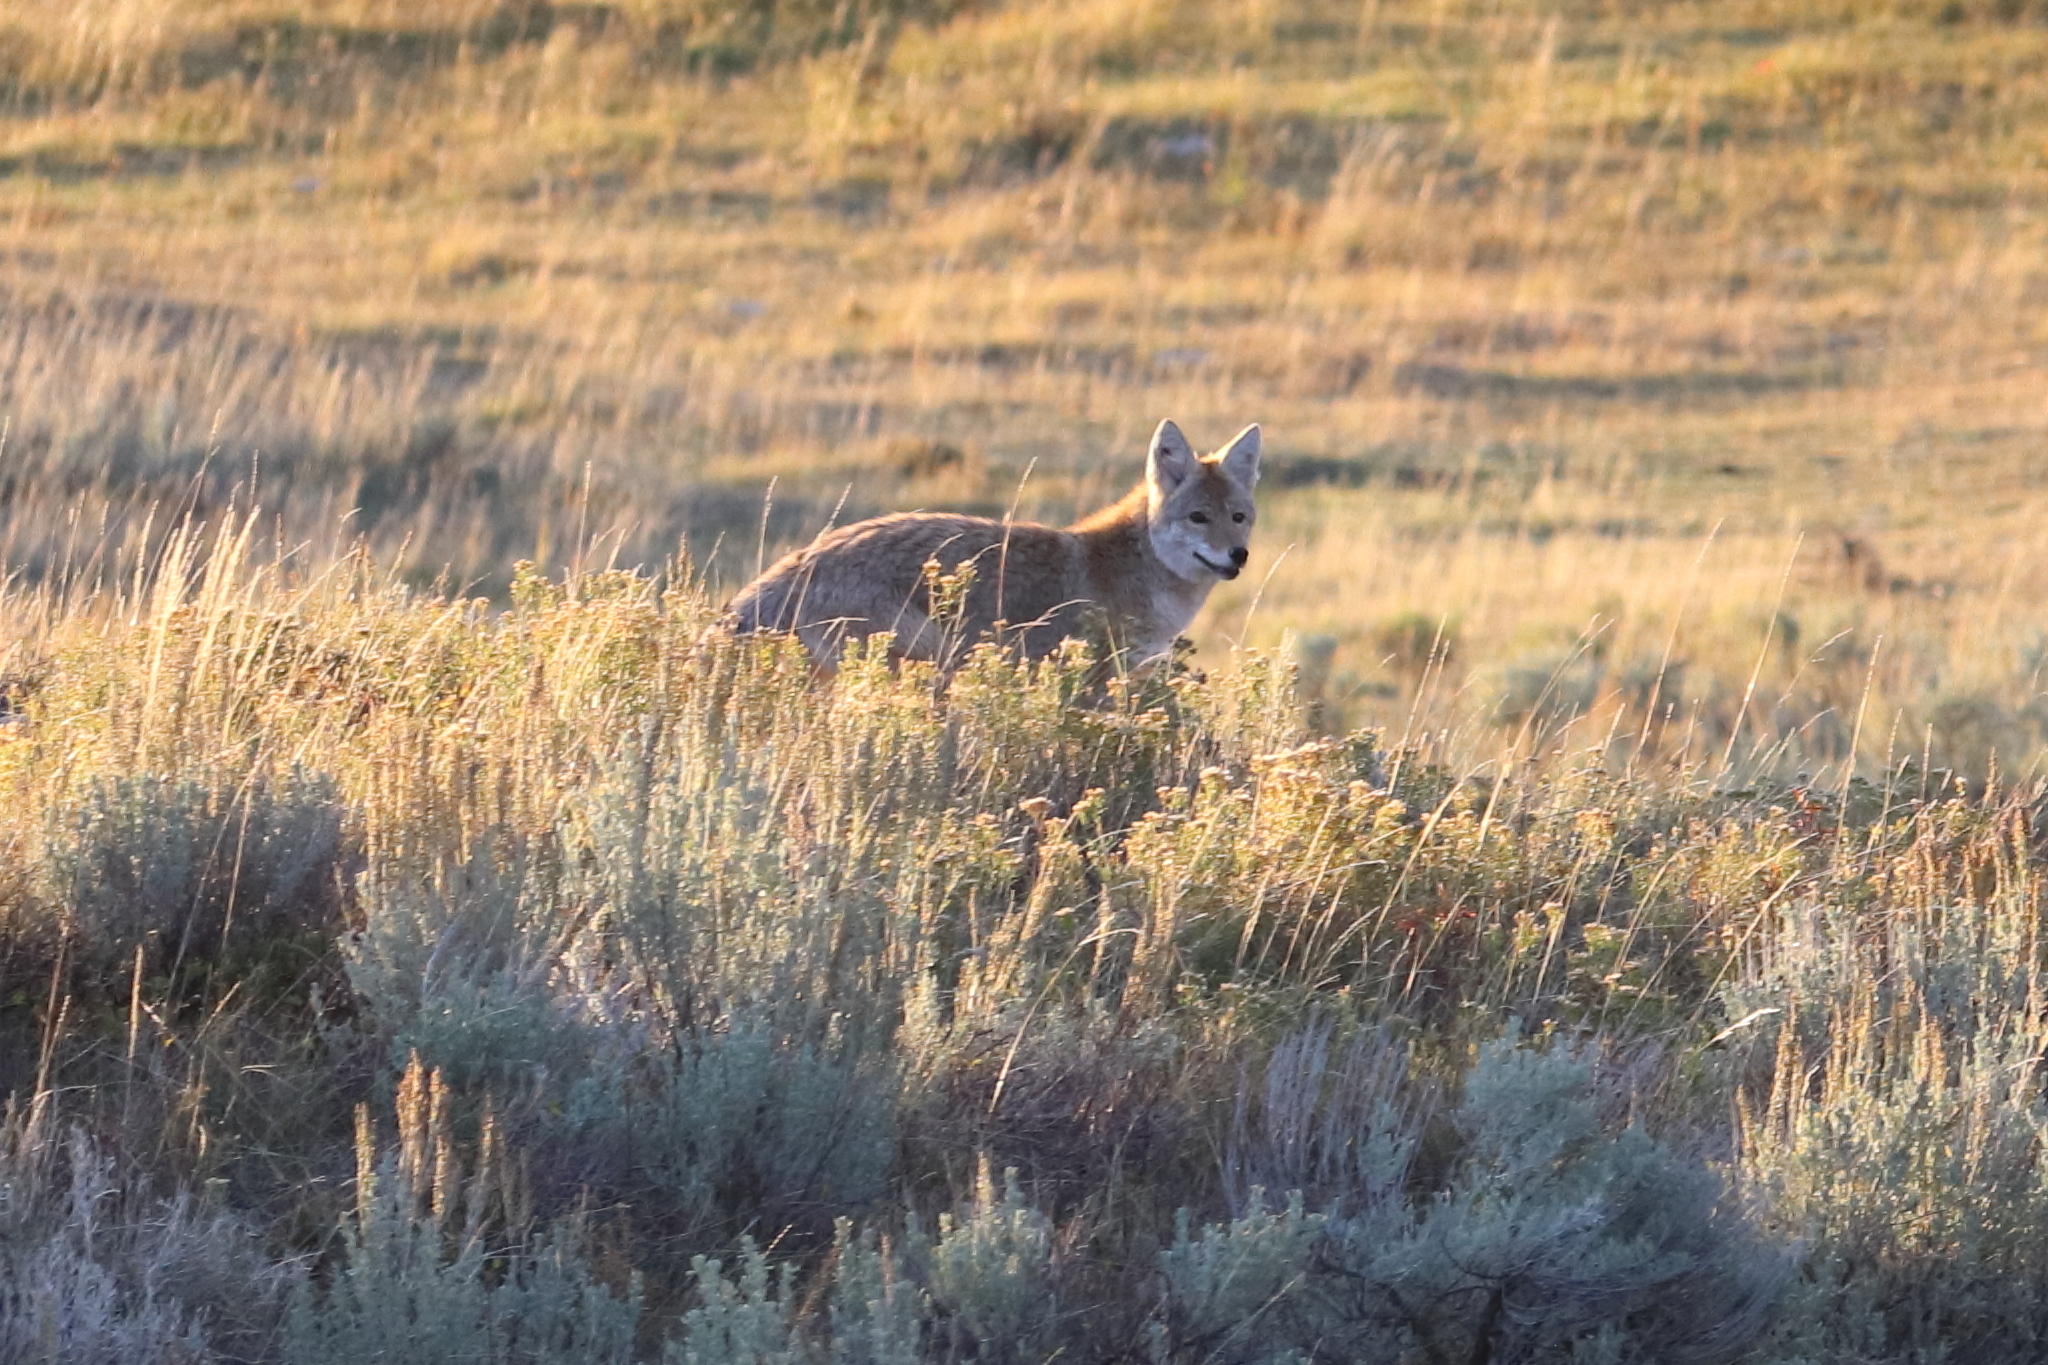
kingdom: Animalia
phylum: Chordata
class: Mammalia
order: Carnivora
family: Canidae
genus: Canis
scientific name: Canis latrans
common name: Coyote
